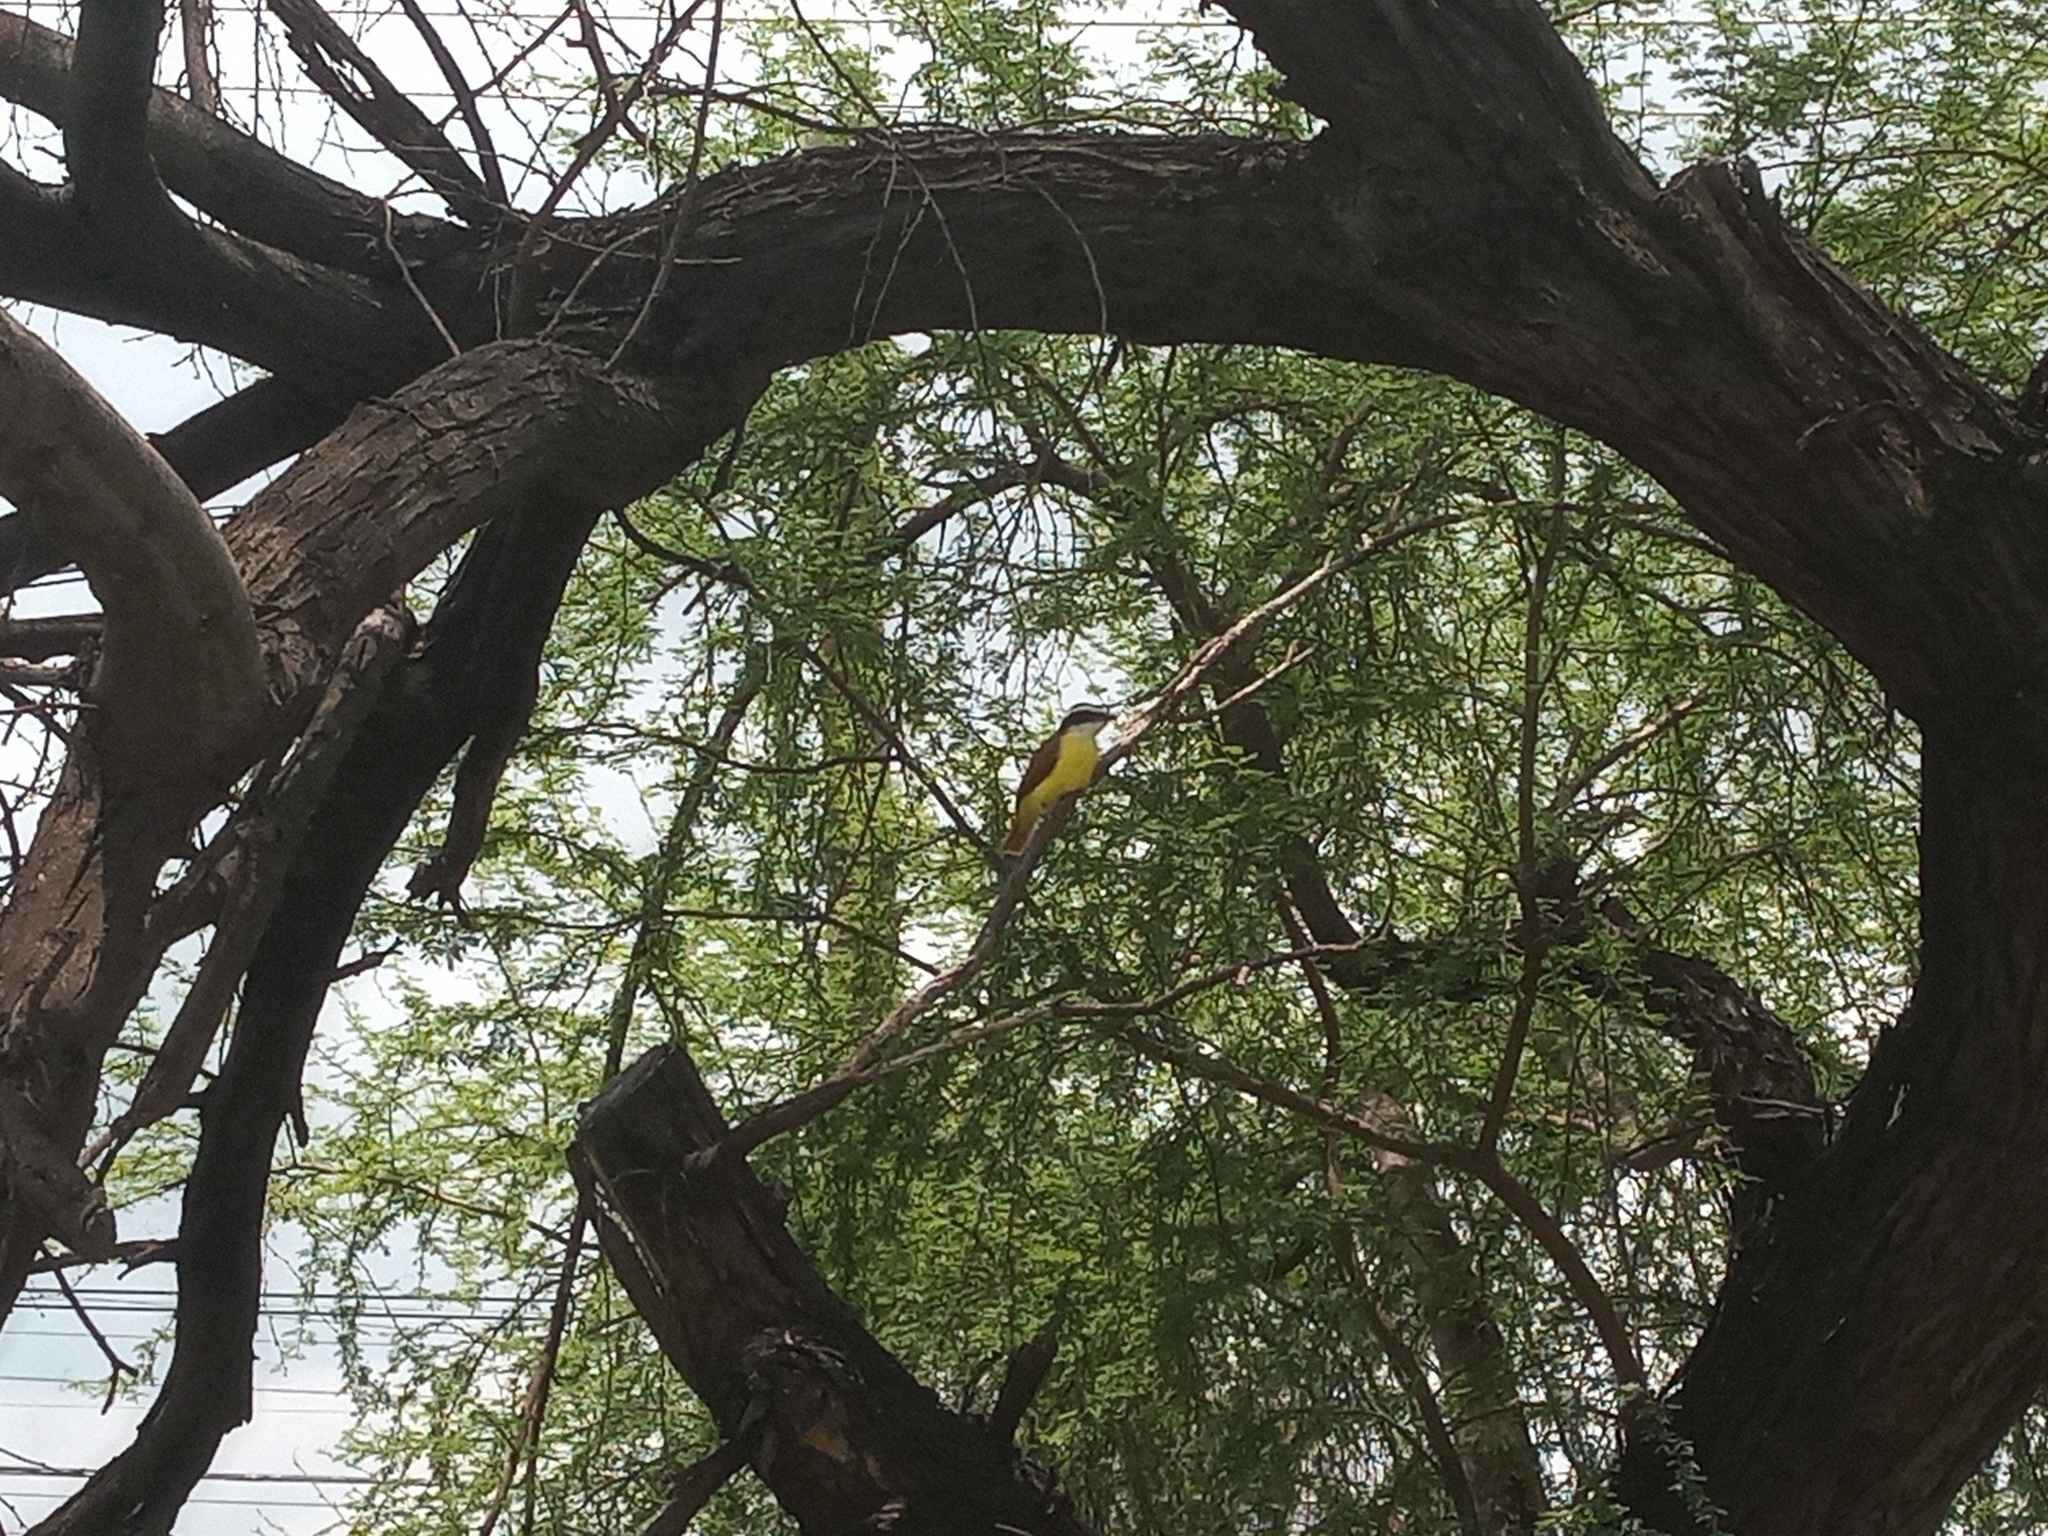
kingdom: Animalia
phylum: Chordata
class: Aves
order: Passeriformes
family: Tyrannidae
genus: Pitangus
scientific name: Pitangus sulphuratus
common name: Great kiskadee
